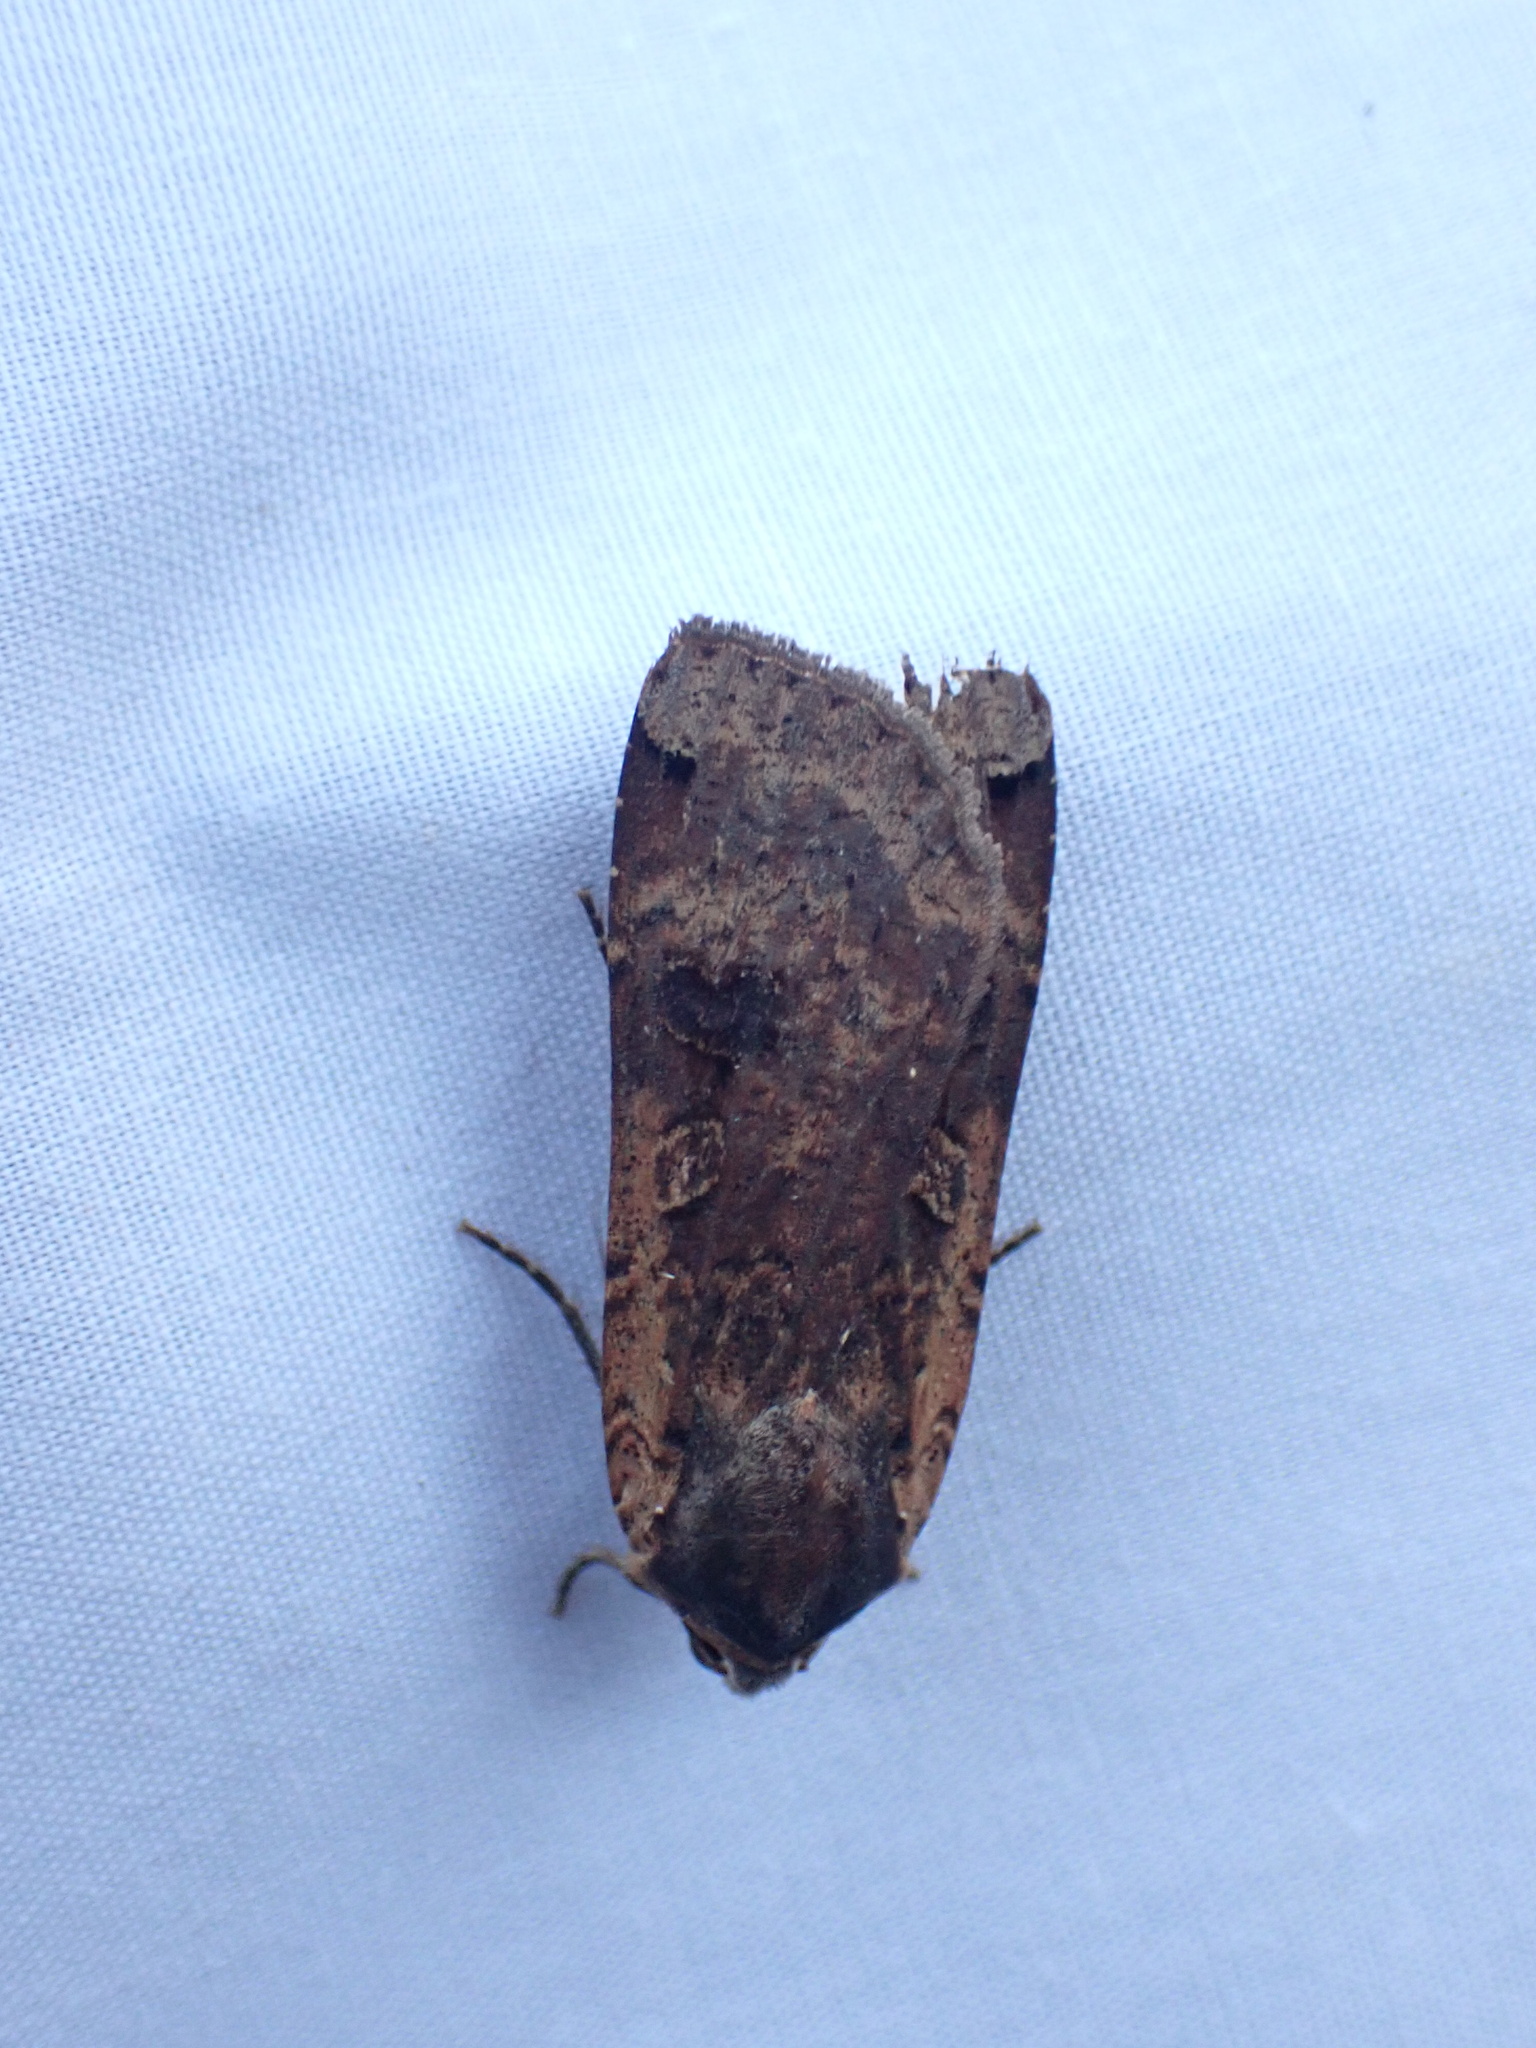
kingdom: Animalia
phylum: Arthropoda
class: Insecta
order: Lepidoptera
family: Noctuidae
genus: Noctua
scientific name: Noctua pronuba
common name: Large yellow underwing
